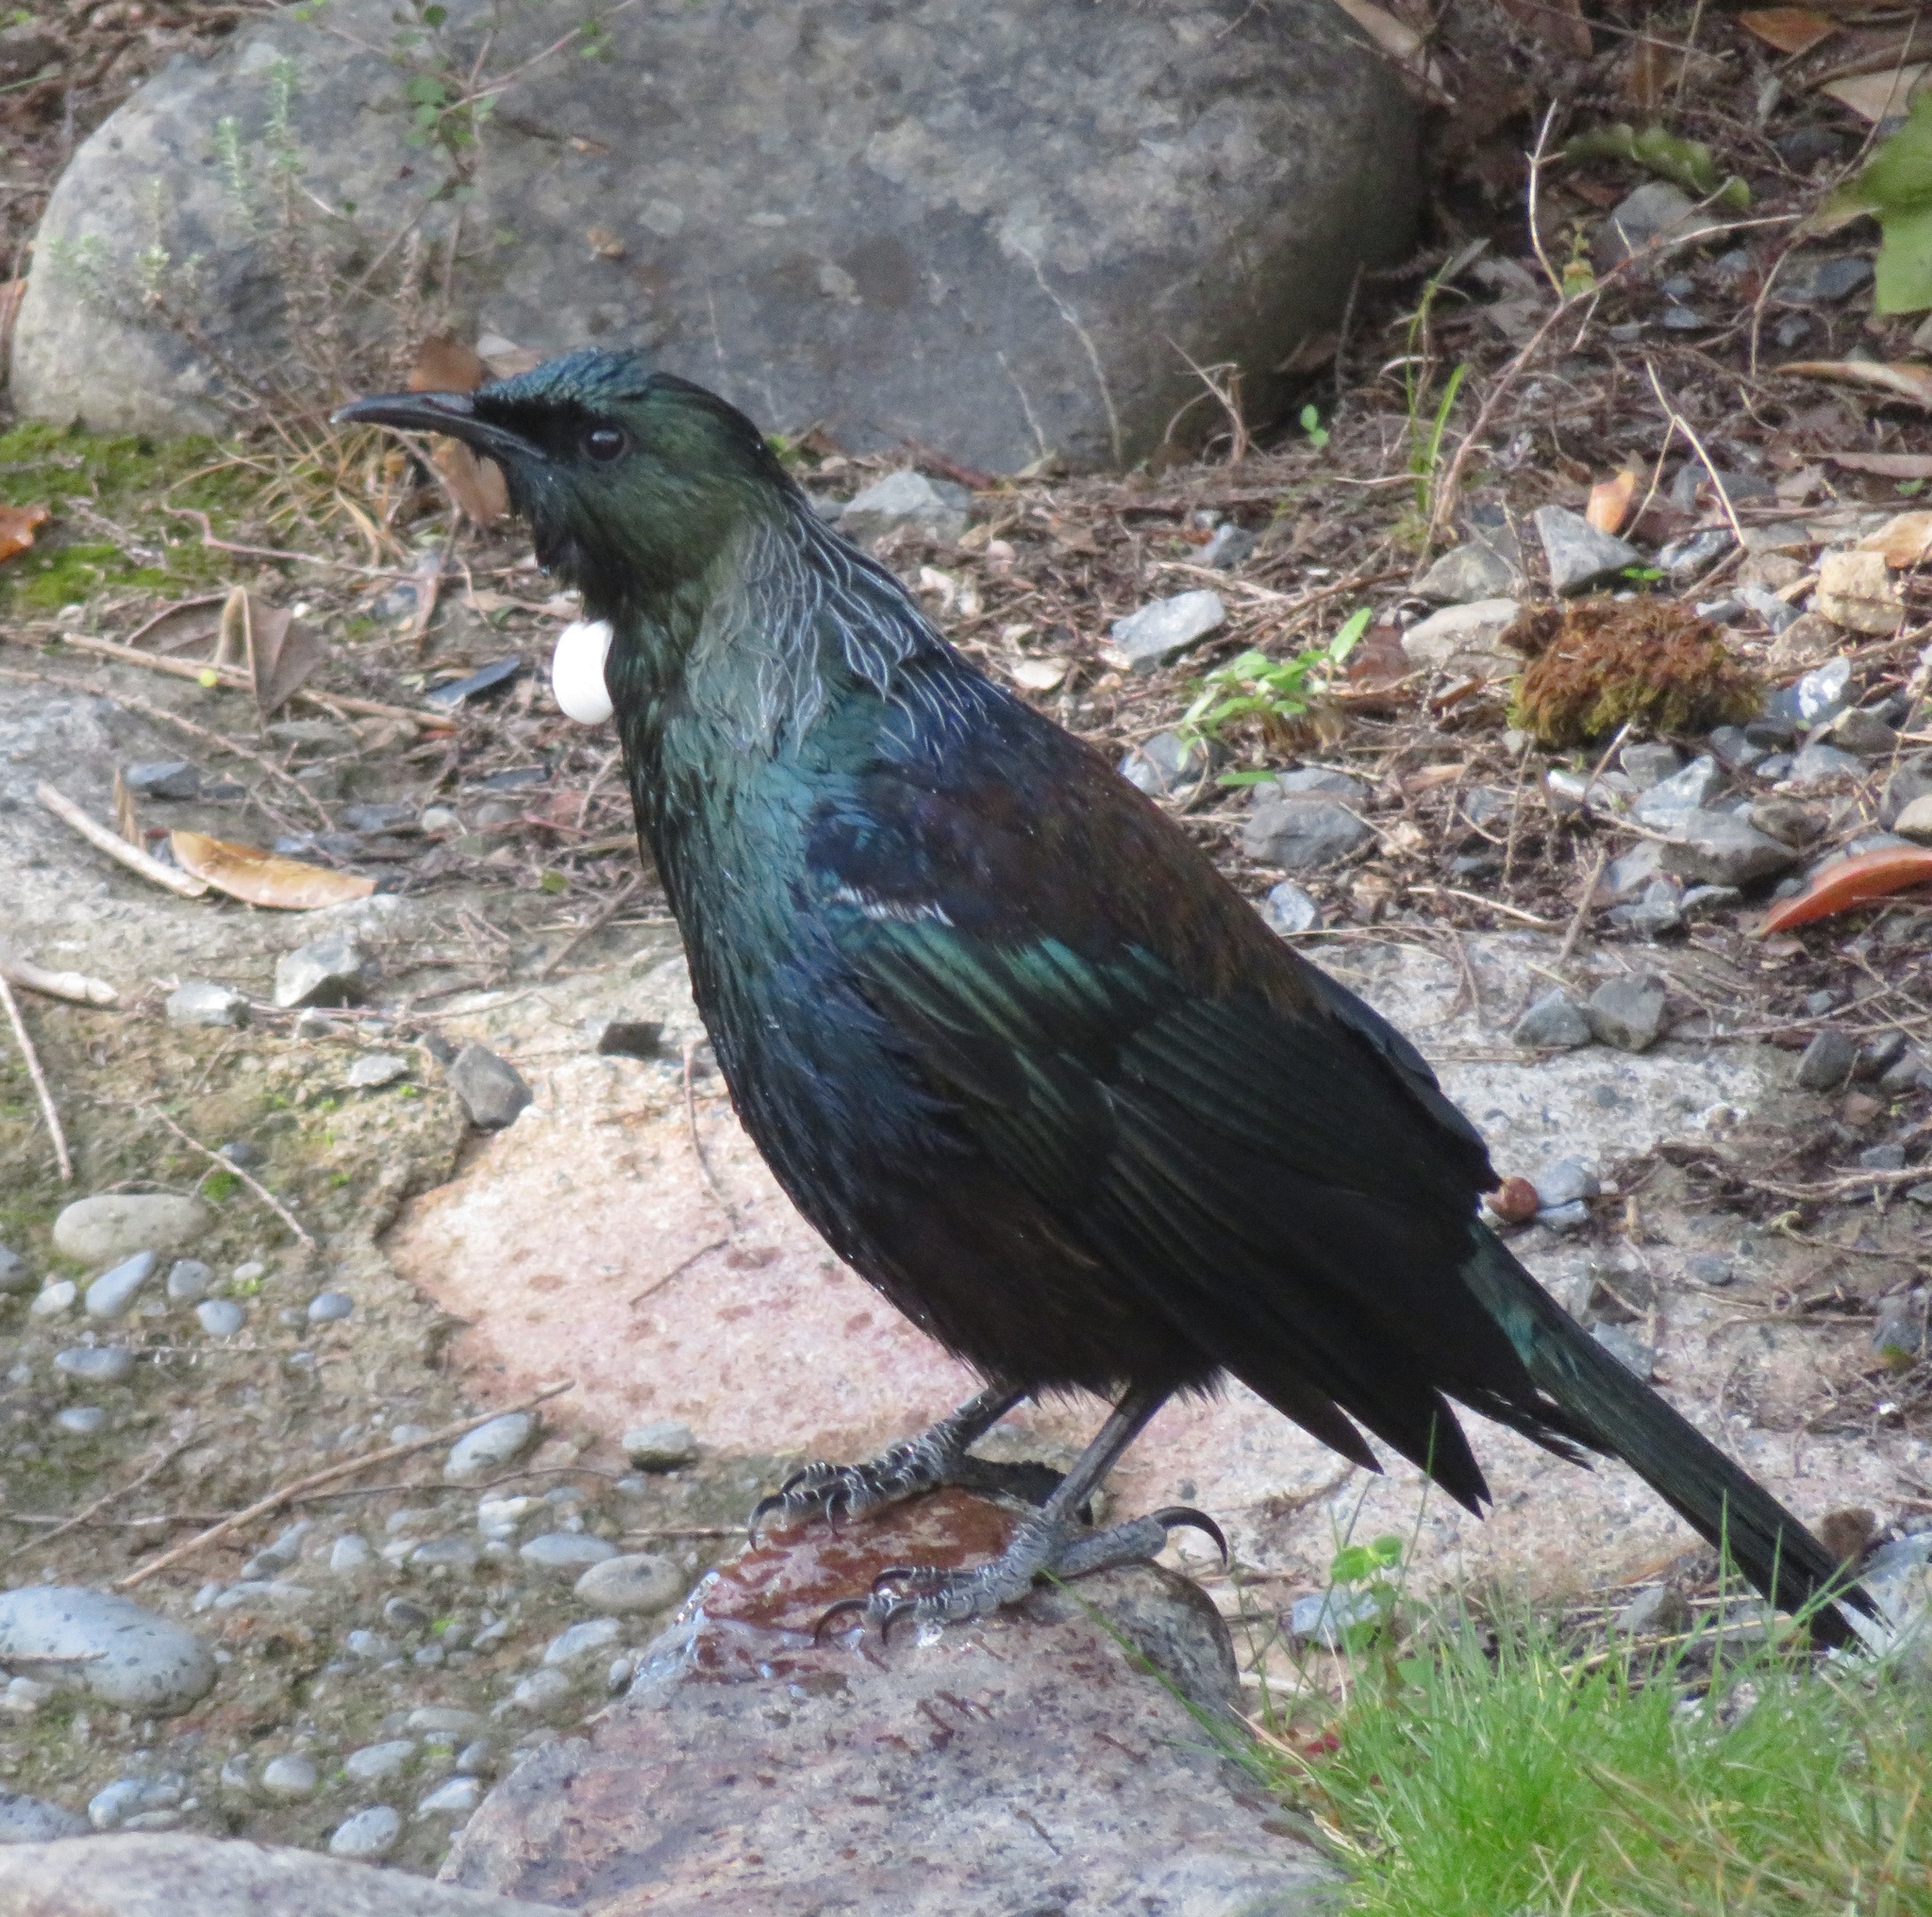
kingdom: Animalia
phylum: Chordata
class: Aves
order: Passeriformes
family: Meliphagidae
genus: Prosthemadera
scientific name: Prosthemadera novaeseelandiae
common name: Tui
